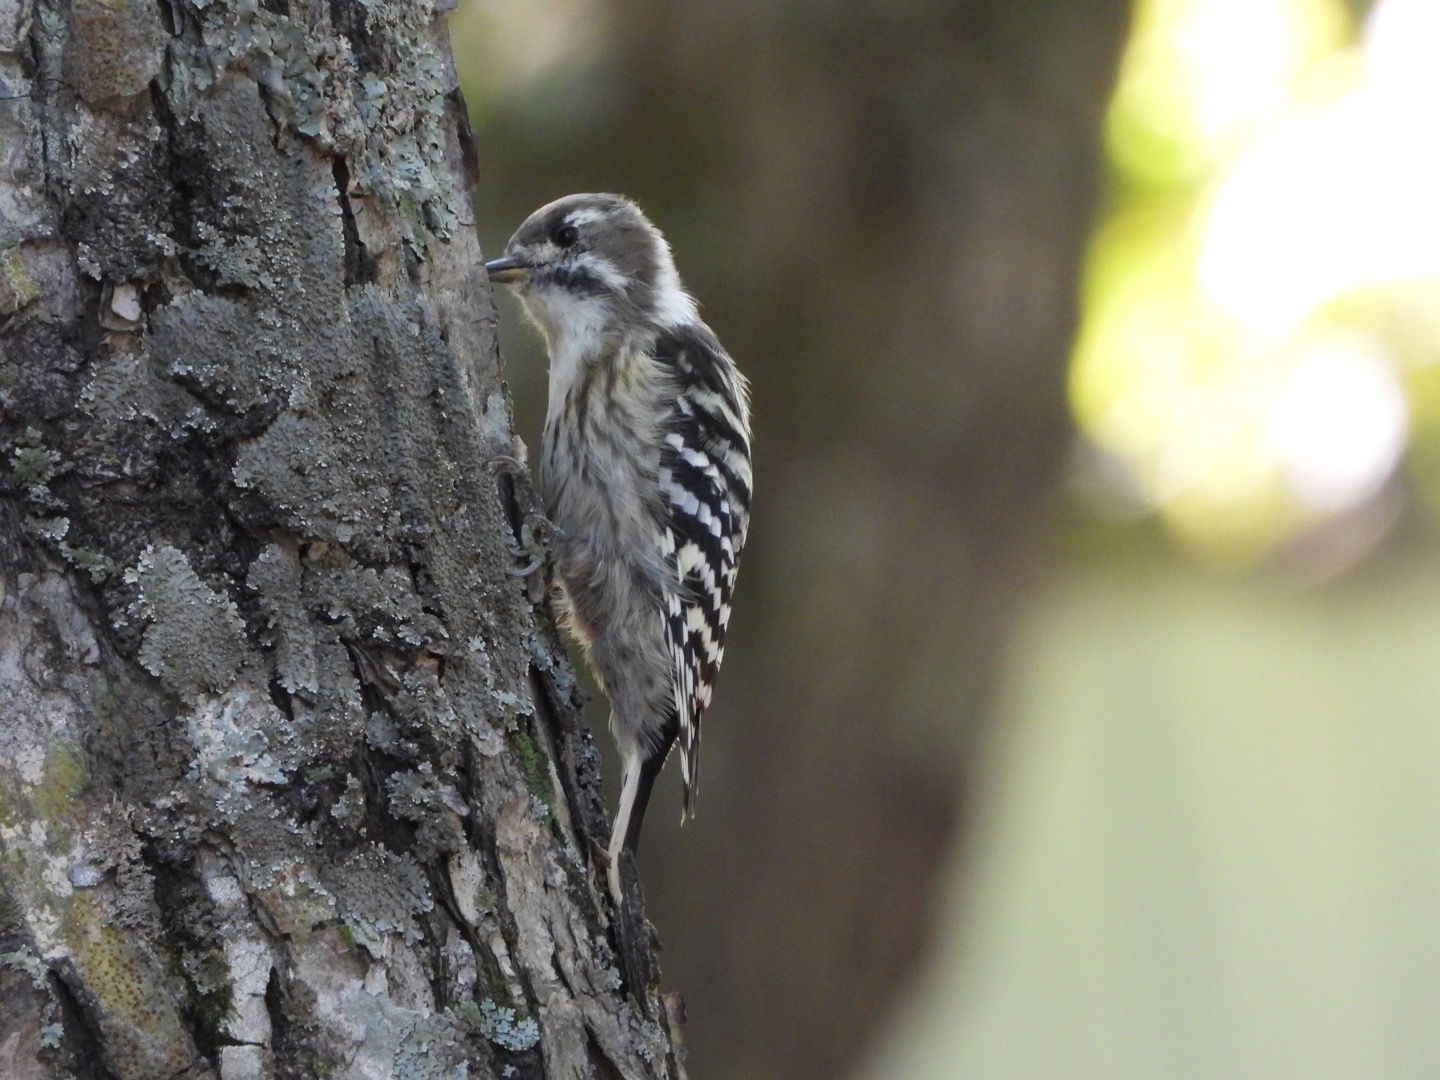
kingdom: Animalia
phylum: Chordata
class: Aves
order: Piciformes
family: Picidae
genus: Yungipicus
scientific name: Yungipicus kizuki
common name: Japanese pygmy woodpecker
